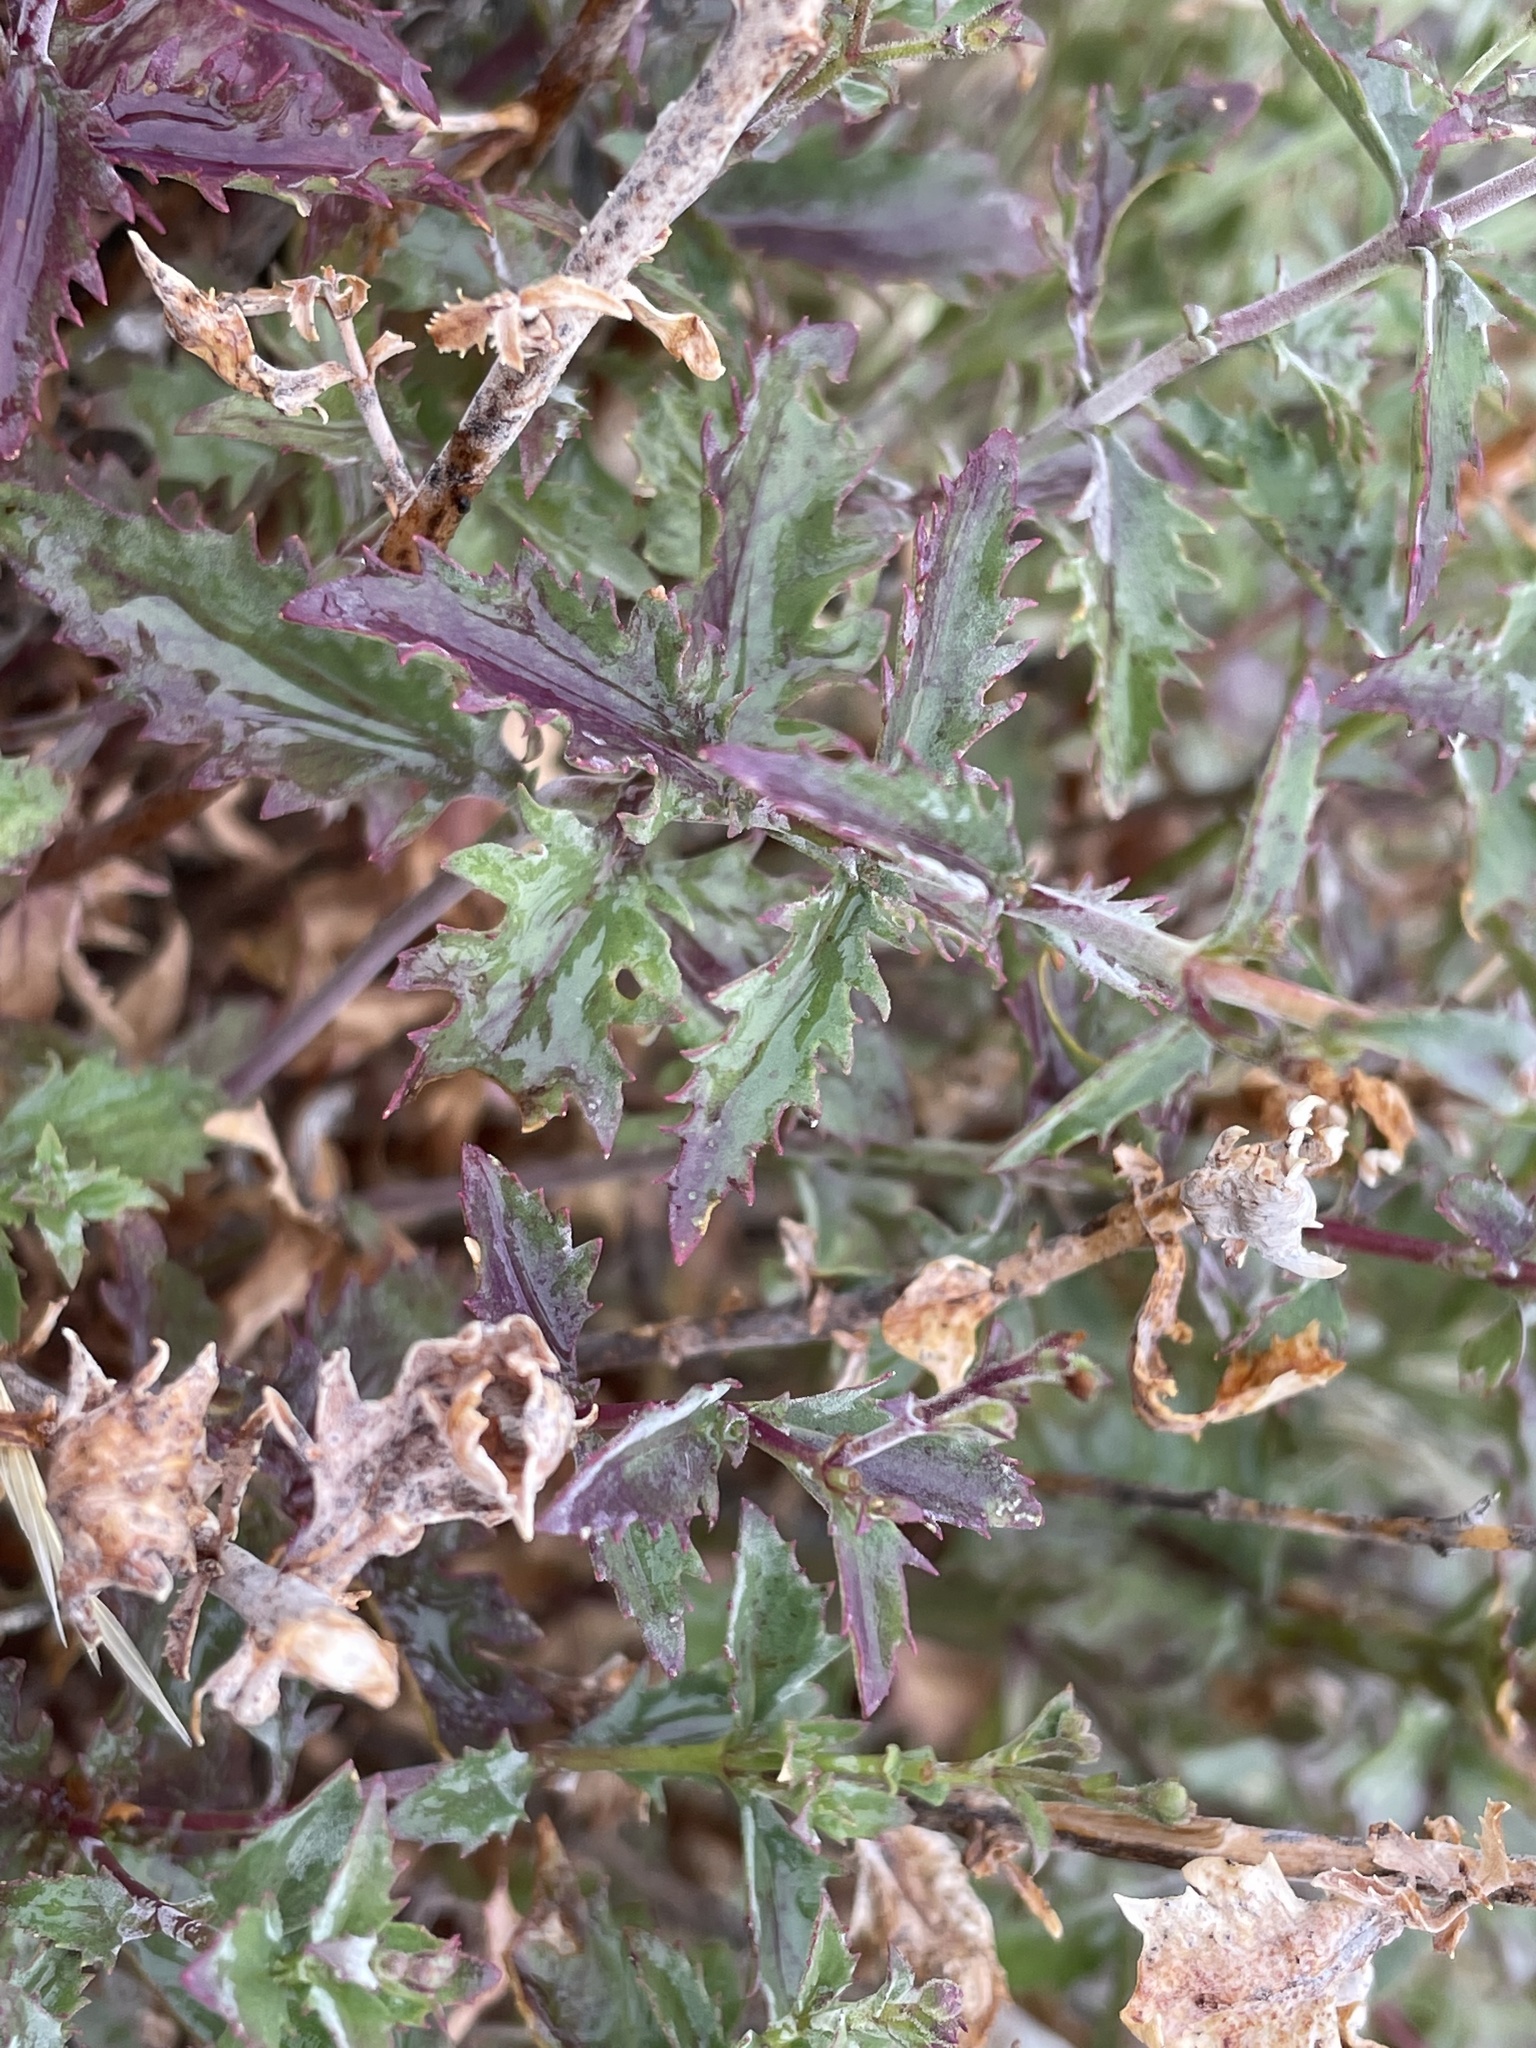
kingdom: Plantae
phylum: Tracheophyta
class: Magnoliopsida
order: Lamiales
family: Plantaginaceae
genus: Penstemon
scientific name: Penstemon richardsonii
